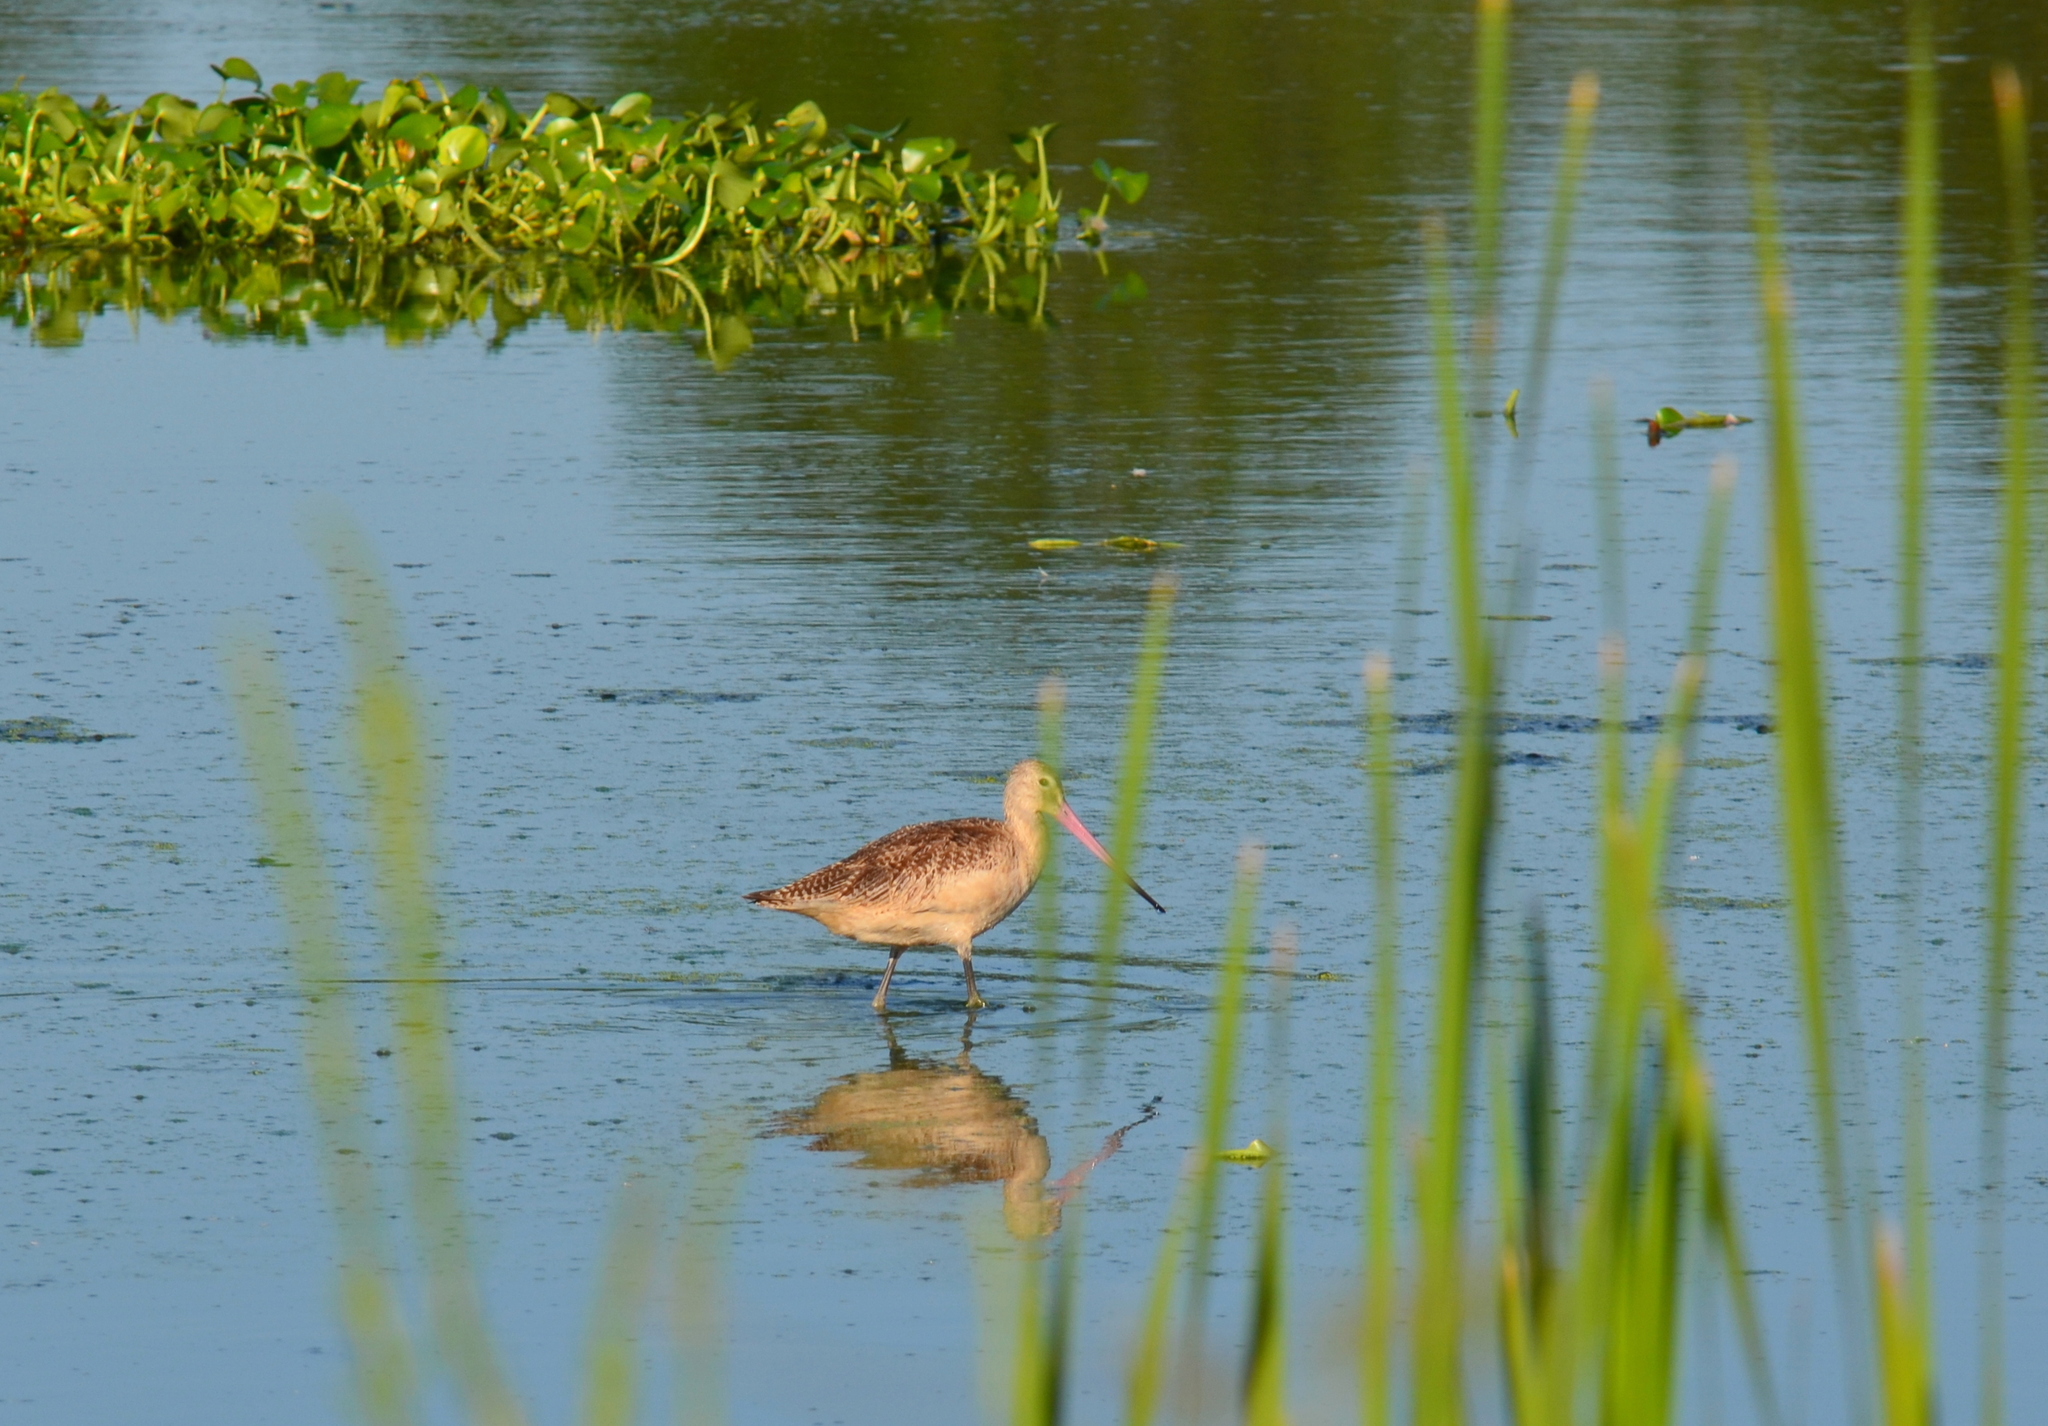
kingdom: Animalia
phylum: Chordata
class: Aves
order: Charadriiformes
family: Scolopacidae
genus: Limosa
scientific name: Limosa fedoa
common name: Marbled godwit
